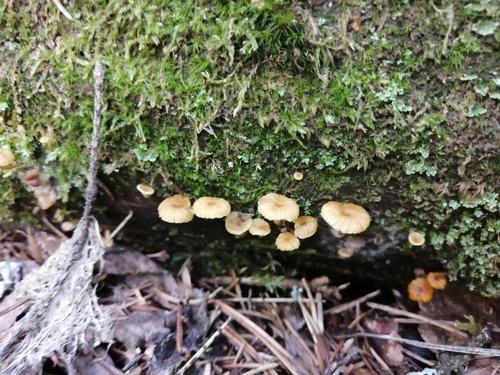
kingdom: Fungi
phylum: Basidiomycota
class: Agaricomycetes
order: Agaricales
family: Mycenaceae
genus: Xeromphalina
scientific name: Xeromphalina campanella
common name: Pinewood gingertail
